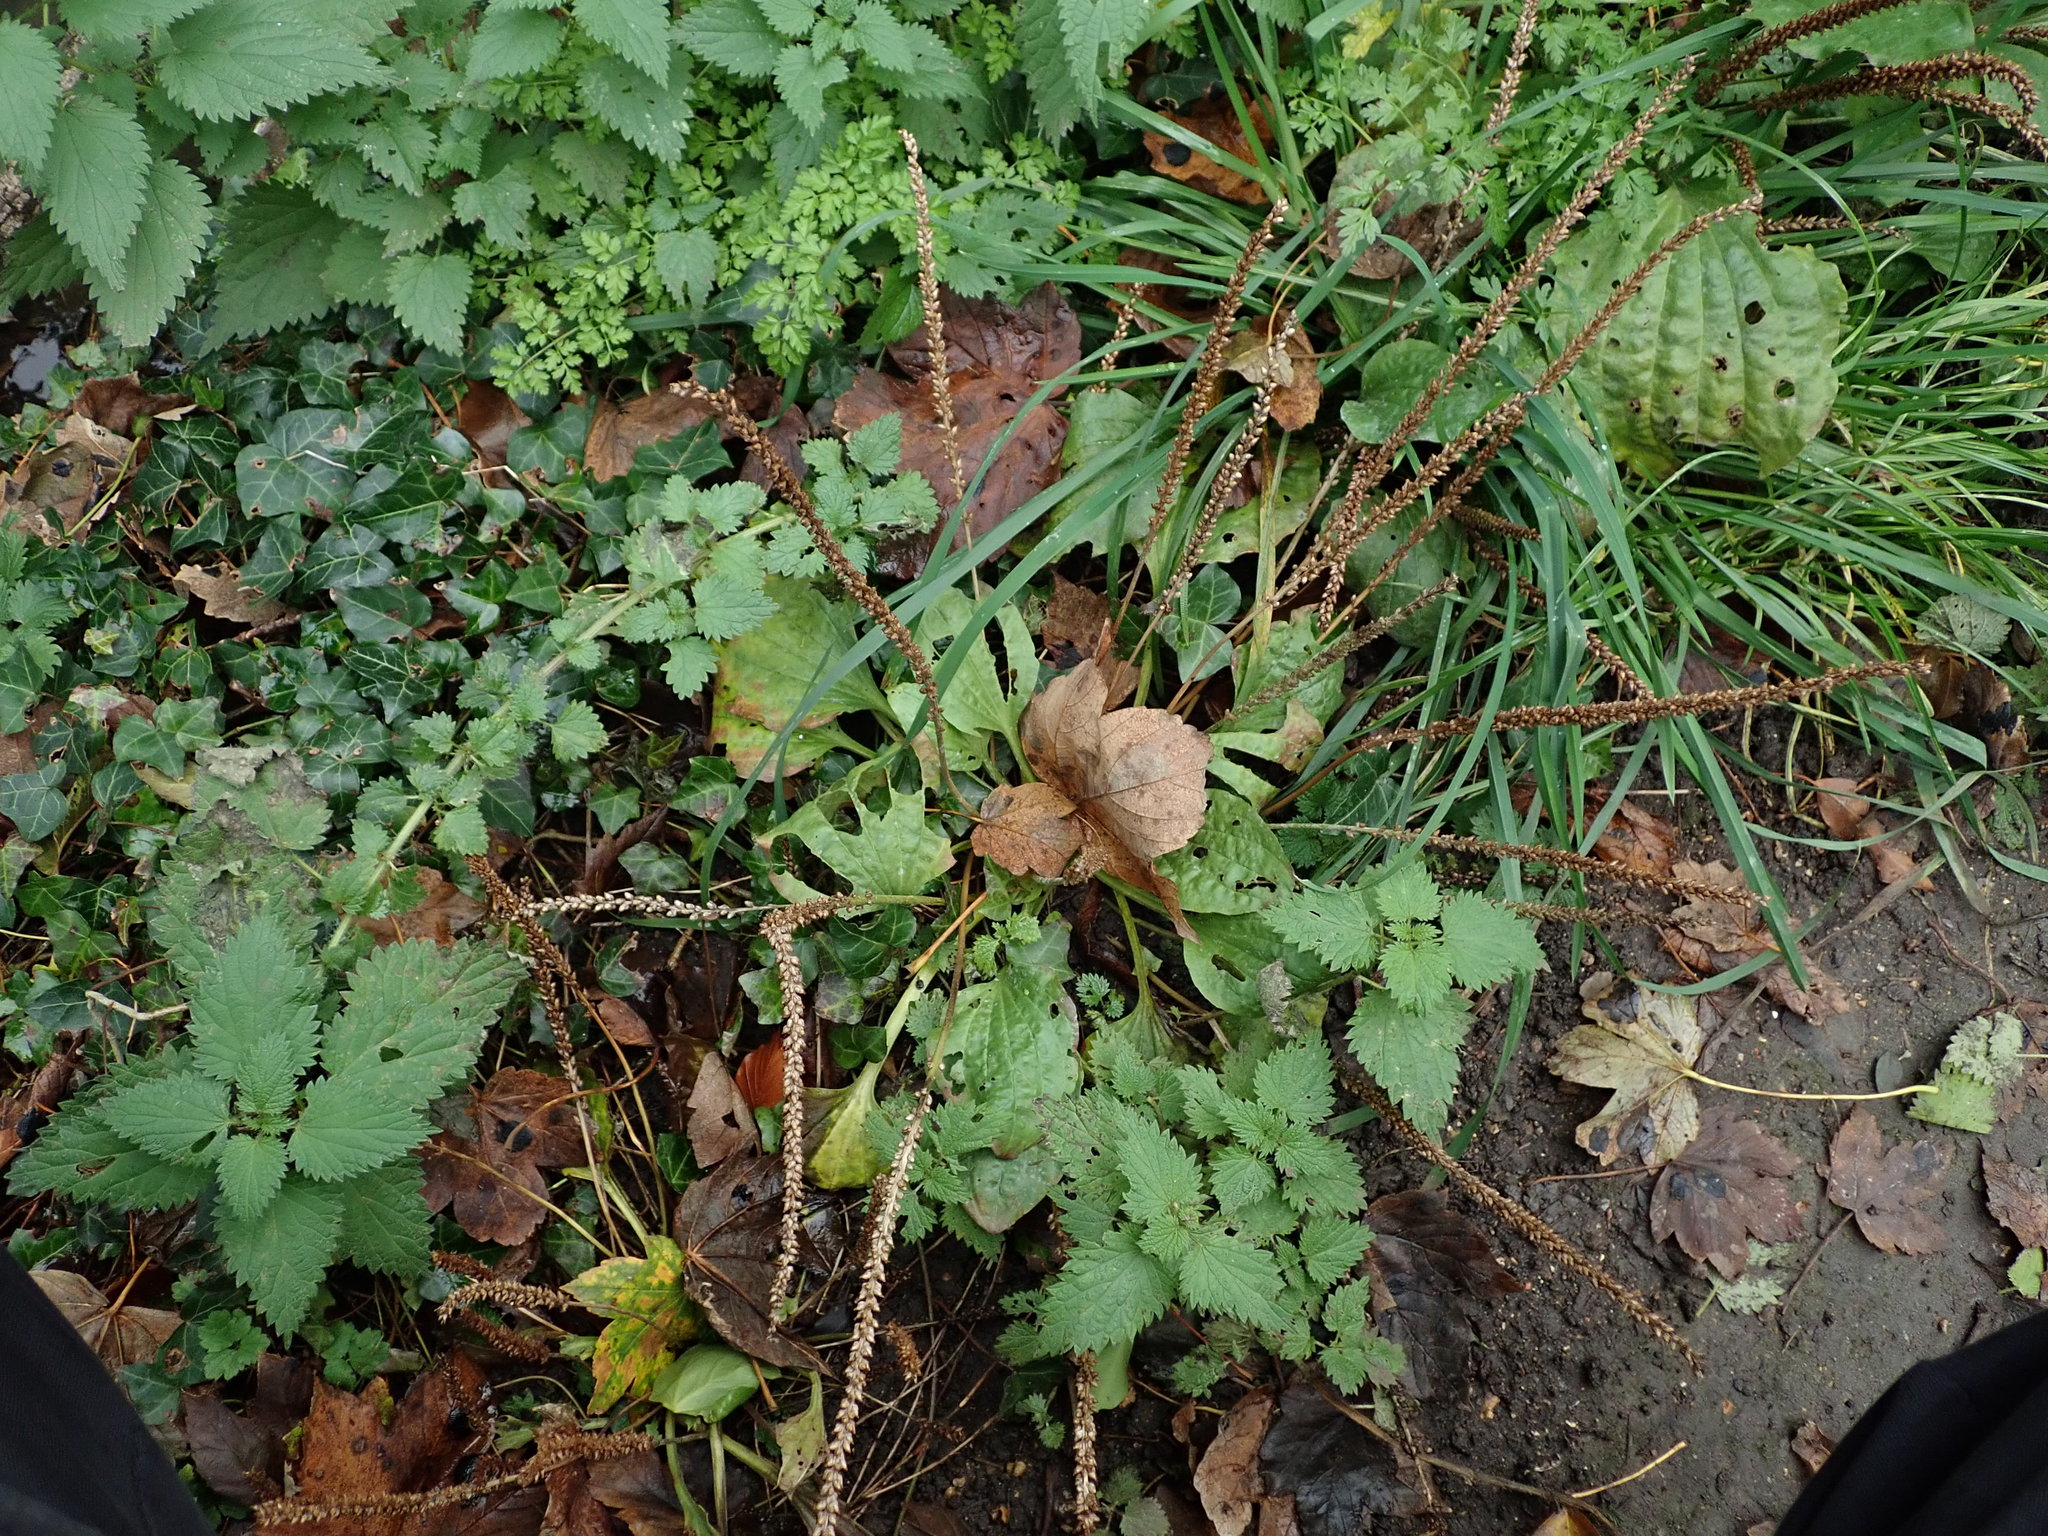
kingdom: Plantae
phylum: Tracheophyta
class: Magnoliopsida
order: Lamiales
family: Plantaginaceae
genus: Plantago
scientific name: Plantago major
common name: Common plantain
